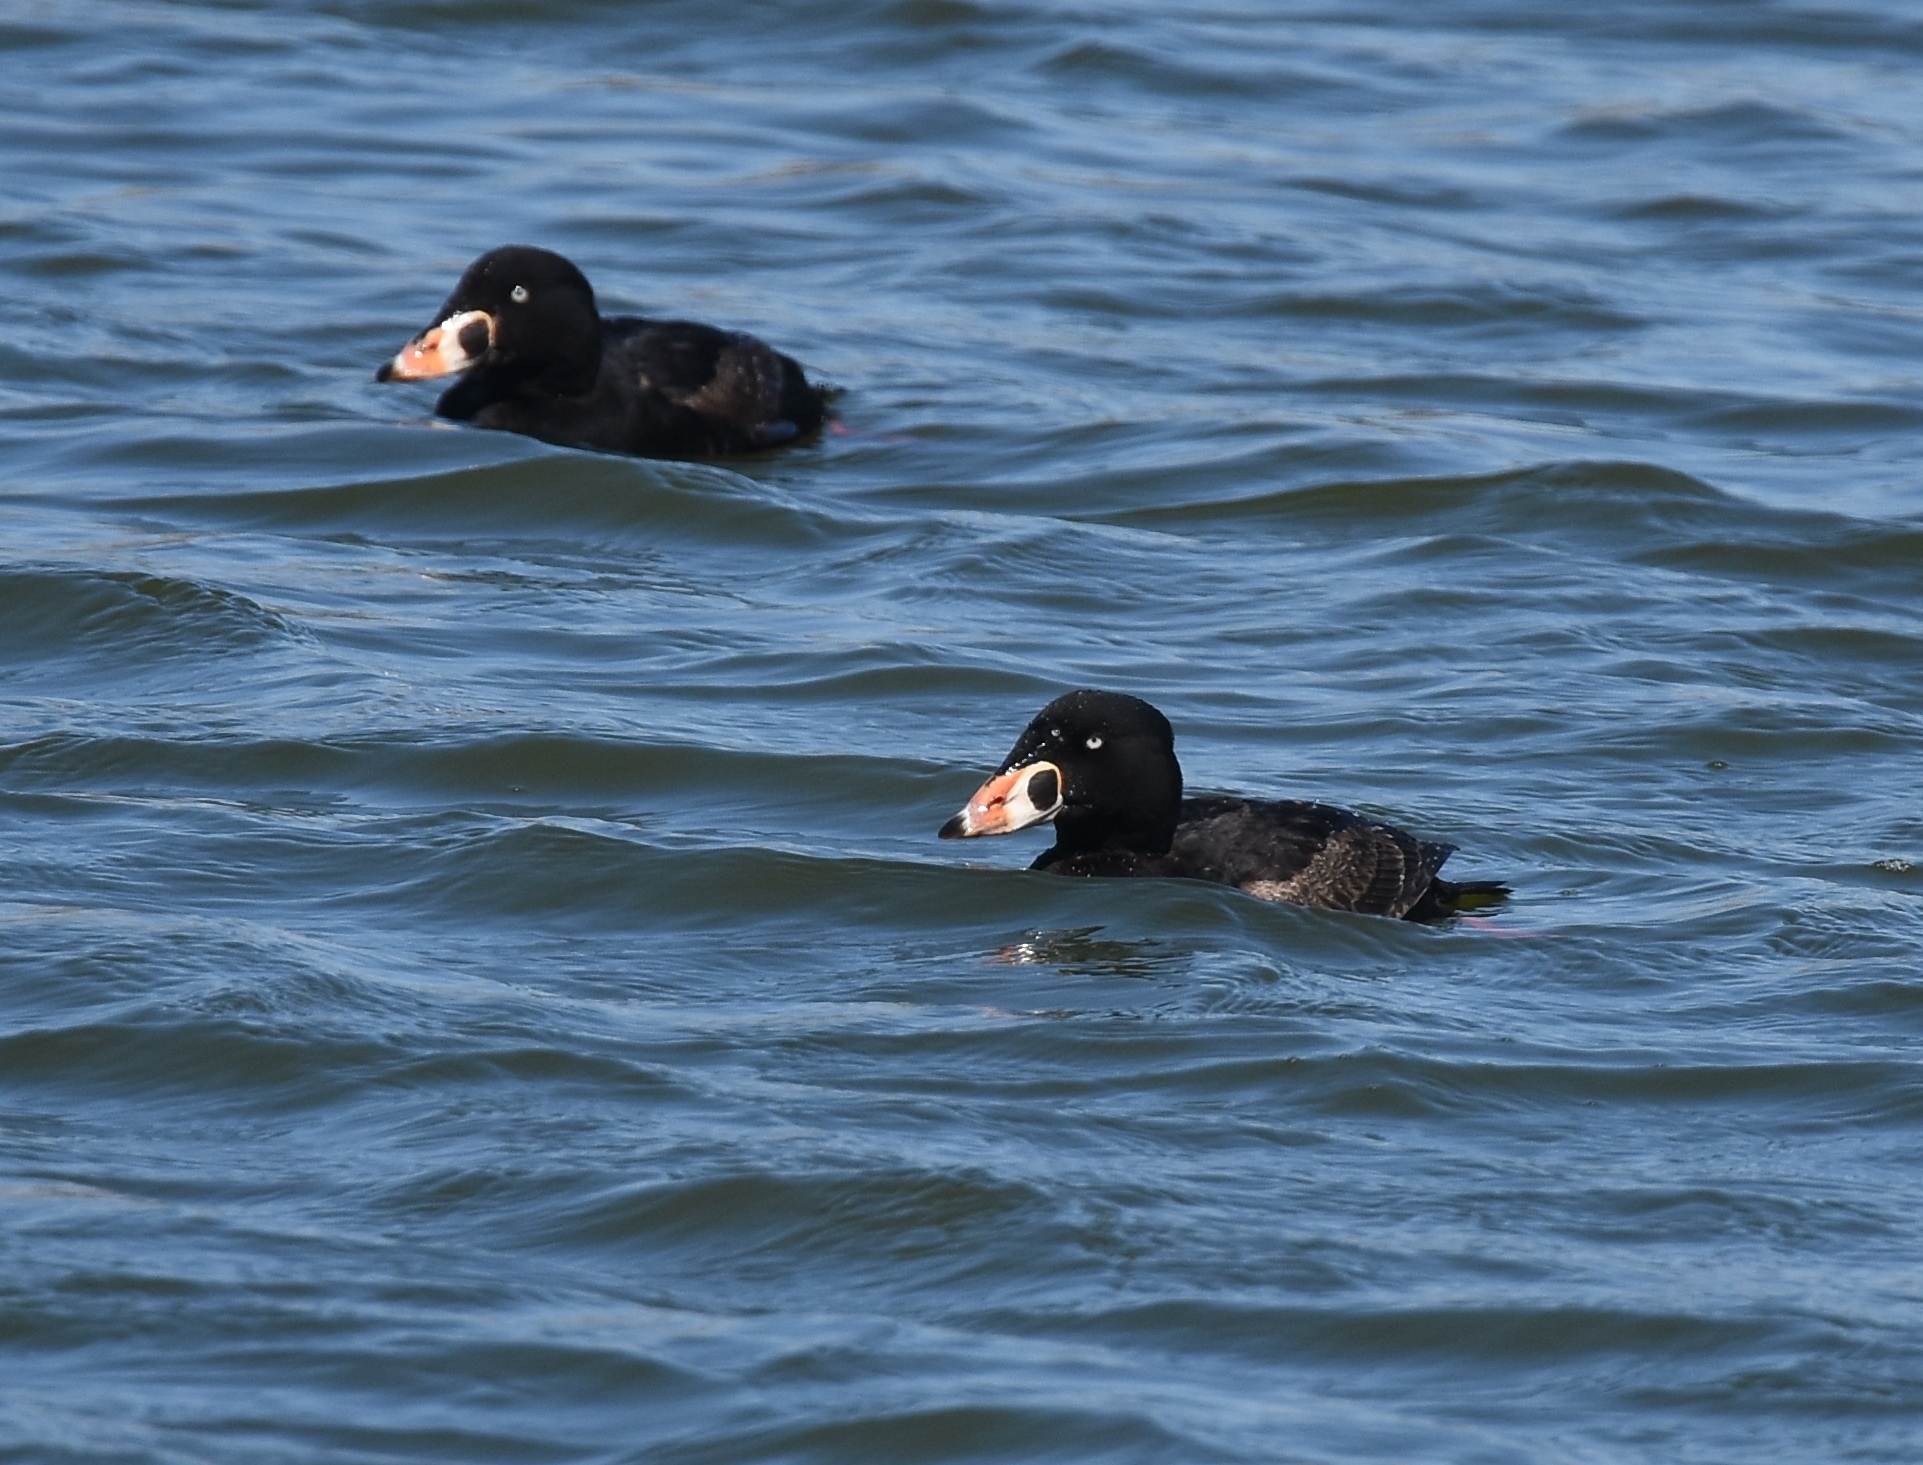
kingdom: Animalia
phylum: Chordata
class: Aves
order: Anseriformes
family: Anatidae
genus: Melanitta
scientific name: Melanitta perspicillata
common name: Surf scoter
